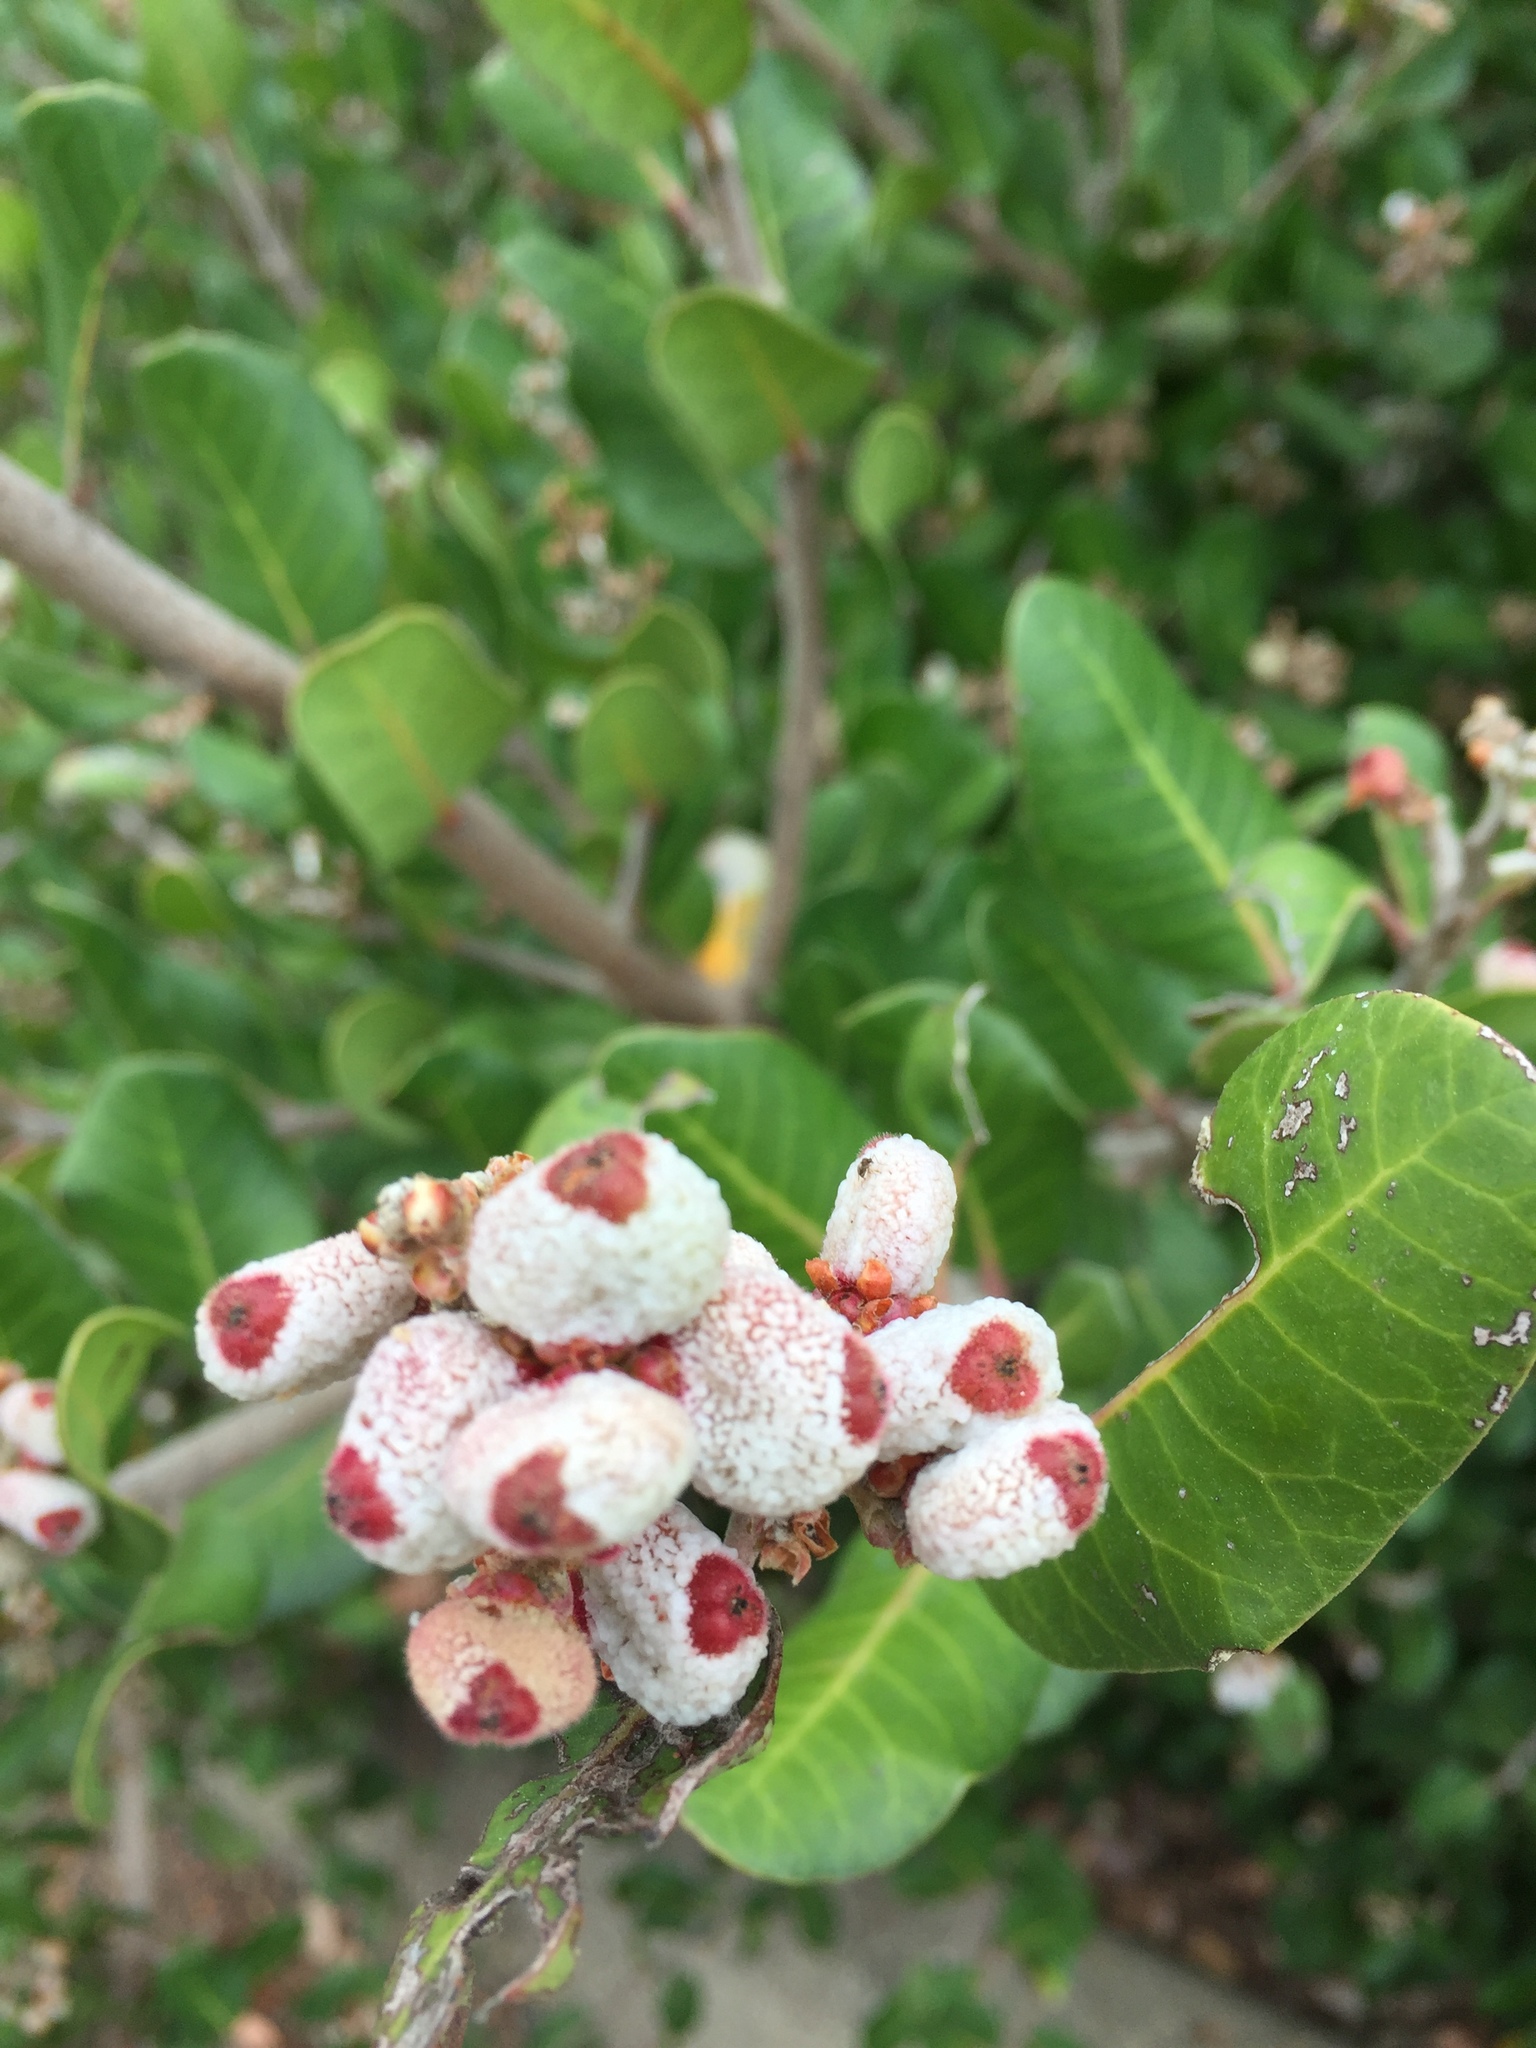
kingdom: Plantae
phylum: Tracheophyta
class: Magnoliopsida
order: Sapindales
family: Anacardiaceae
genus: Rhus
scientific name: Rhus integrifolia
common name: Lemonade sumac
